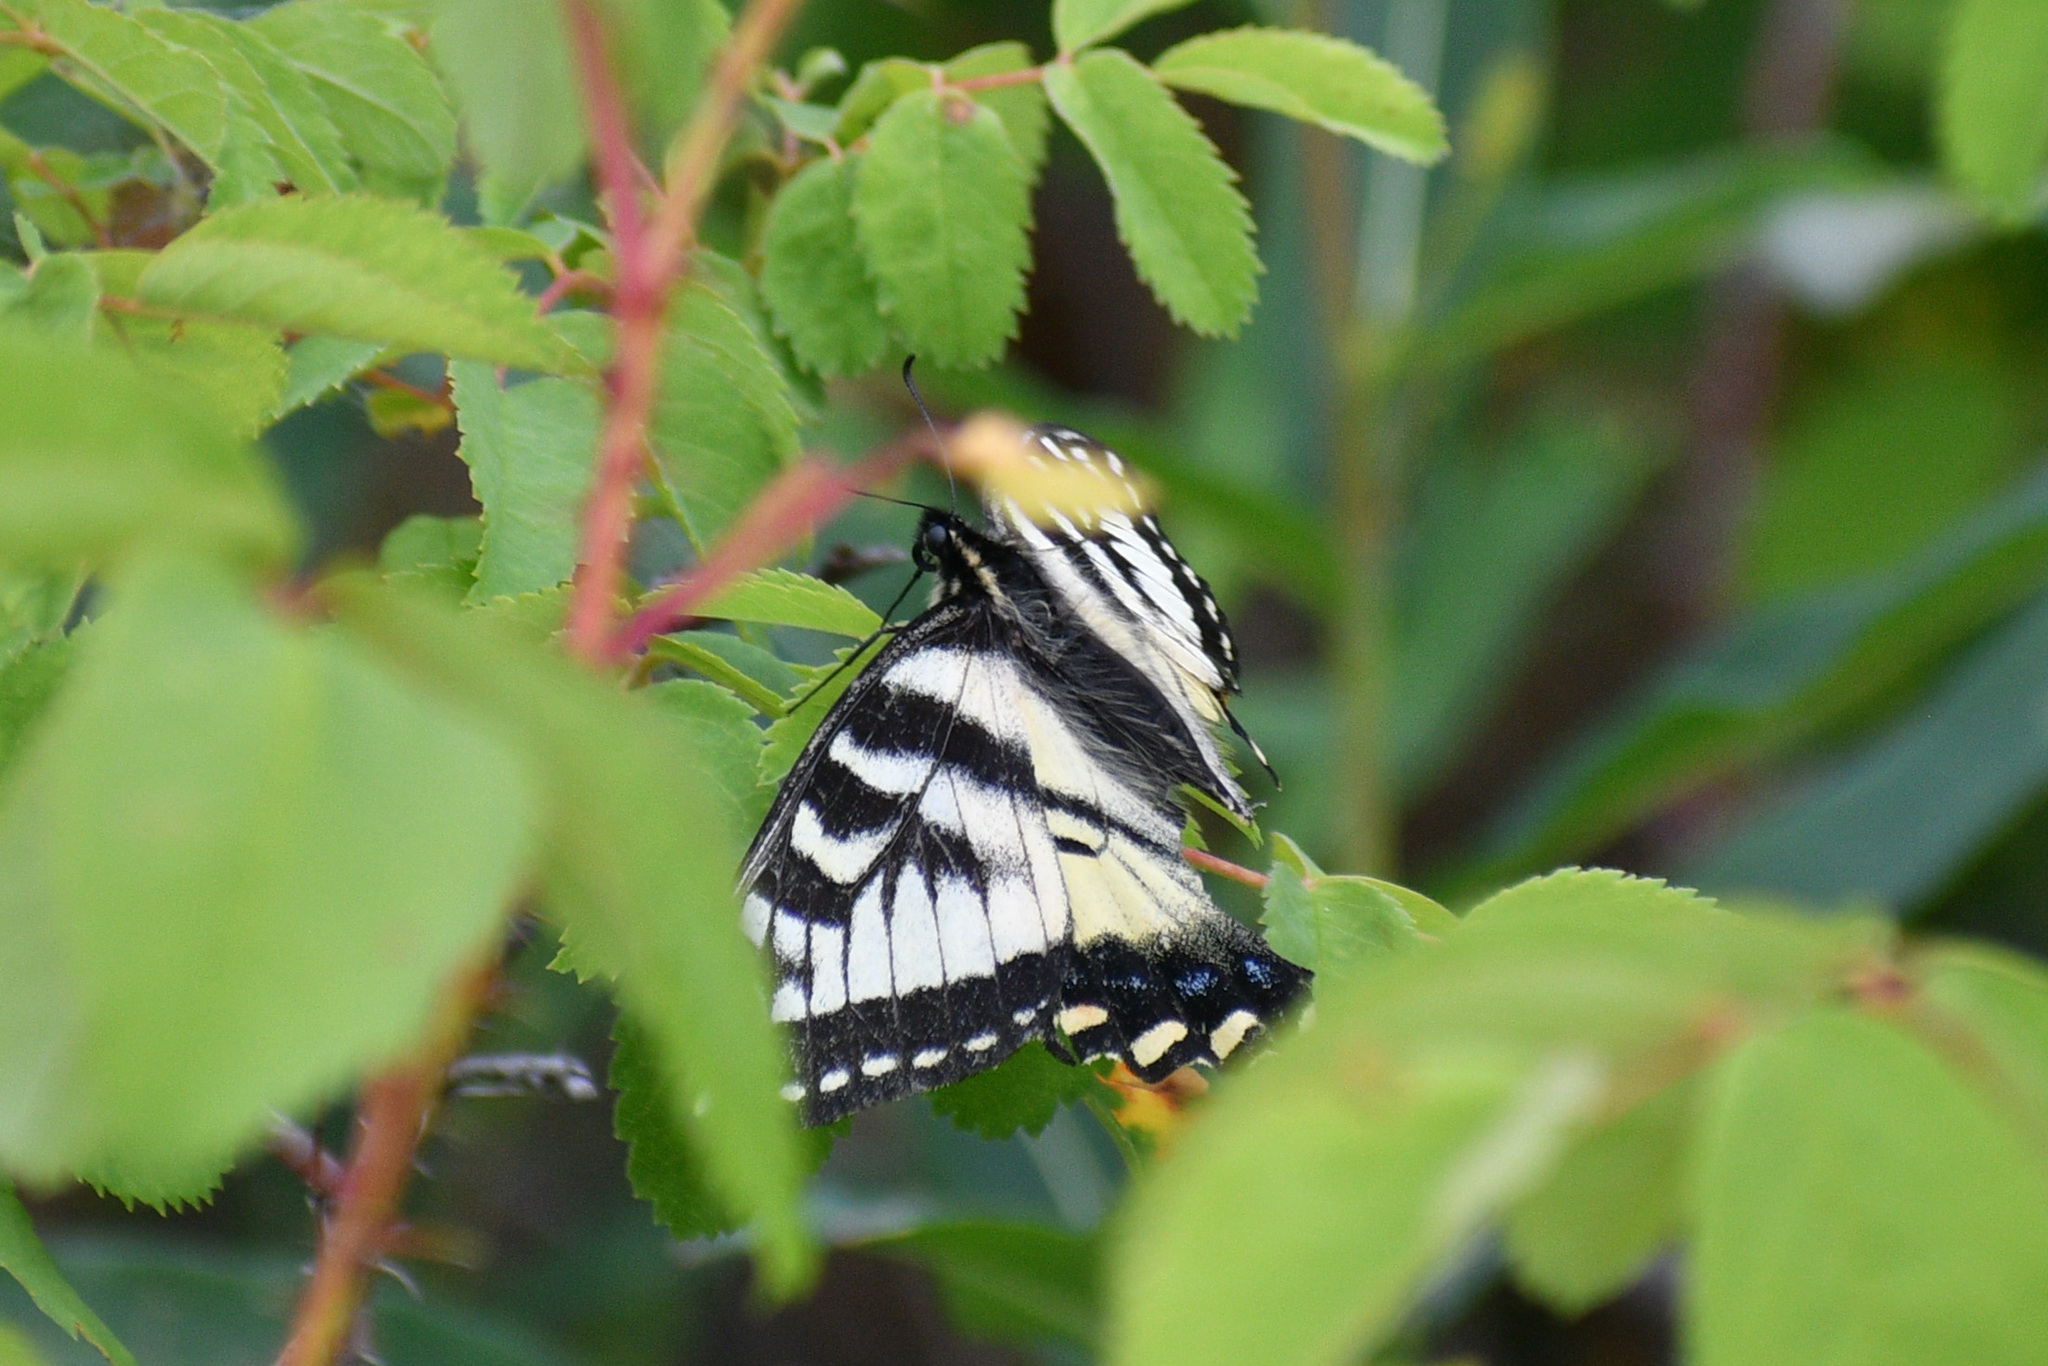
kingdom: Animalia
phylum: Arthropoda
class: Insecta
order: Lepidoptera
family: Papilionidae
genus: Papilio
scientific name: Papilio canadensis
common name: Canadian tiger swallowtail
